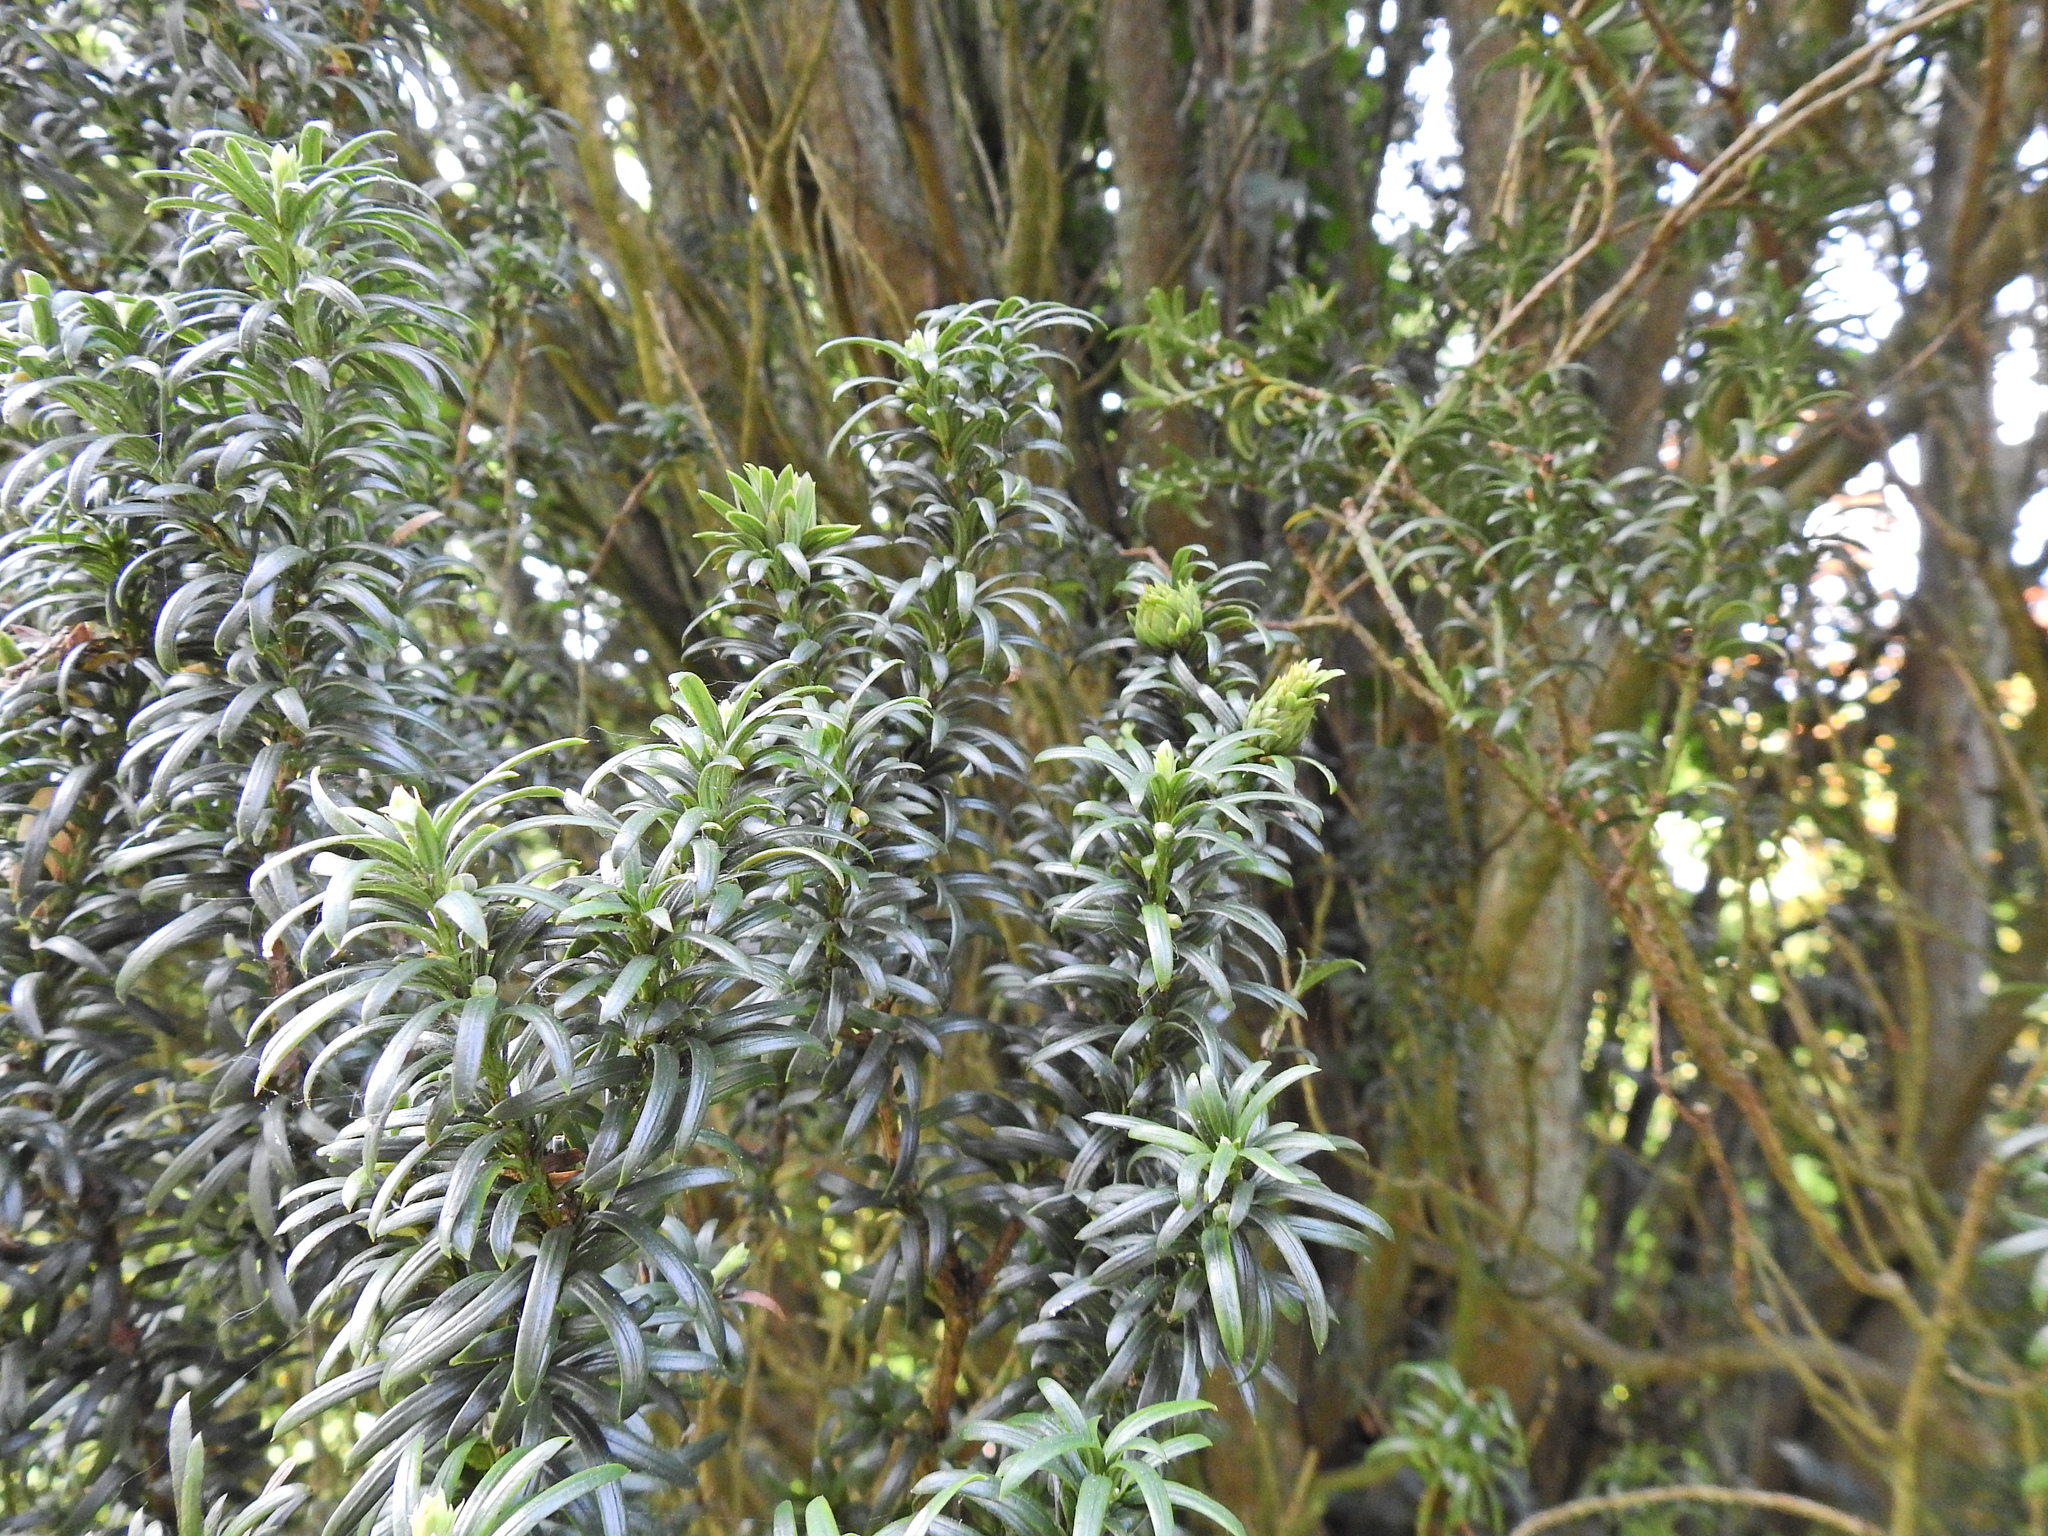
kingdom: Plantae
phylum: Tracheophyta
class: Pinopsida
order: Pinales
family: Taxaceae
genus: Taxus
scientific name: Taxus baccata
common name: Yew
